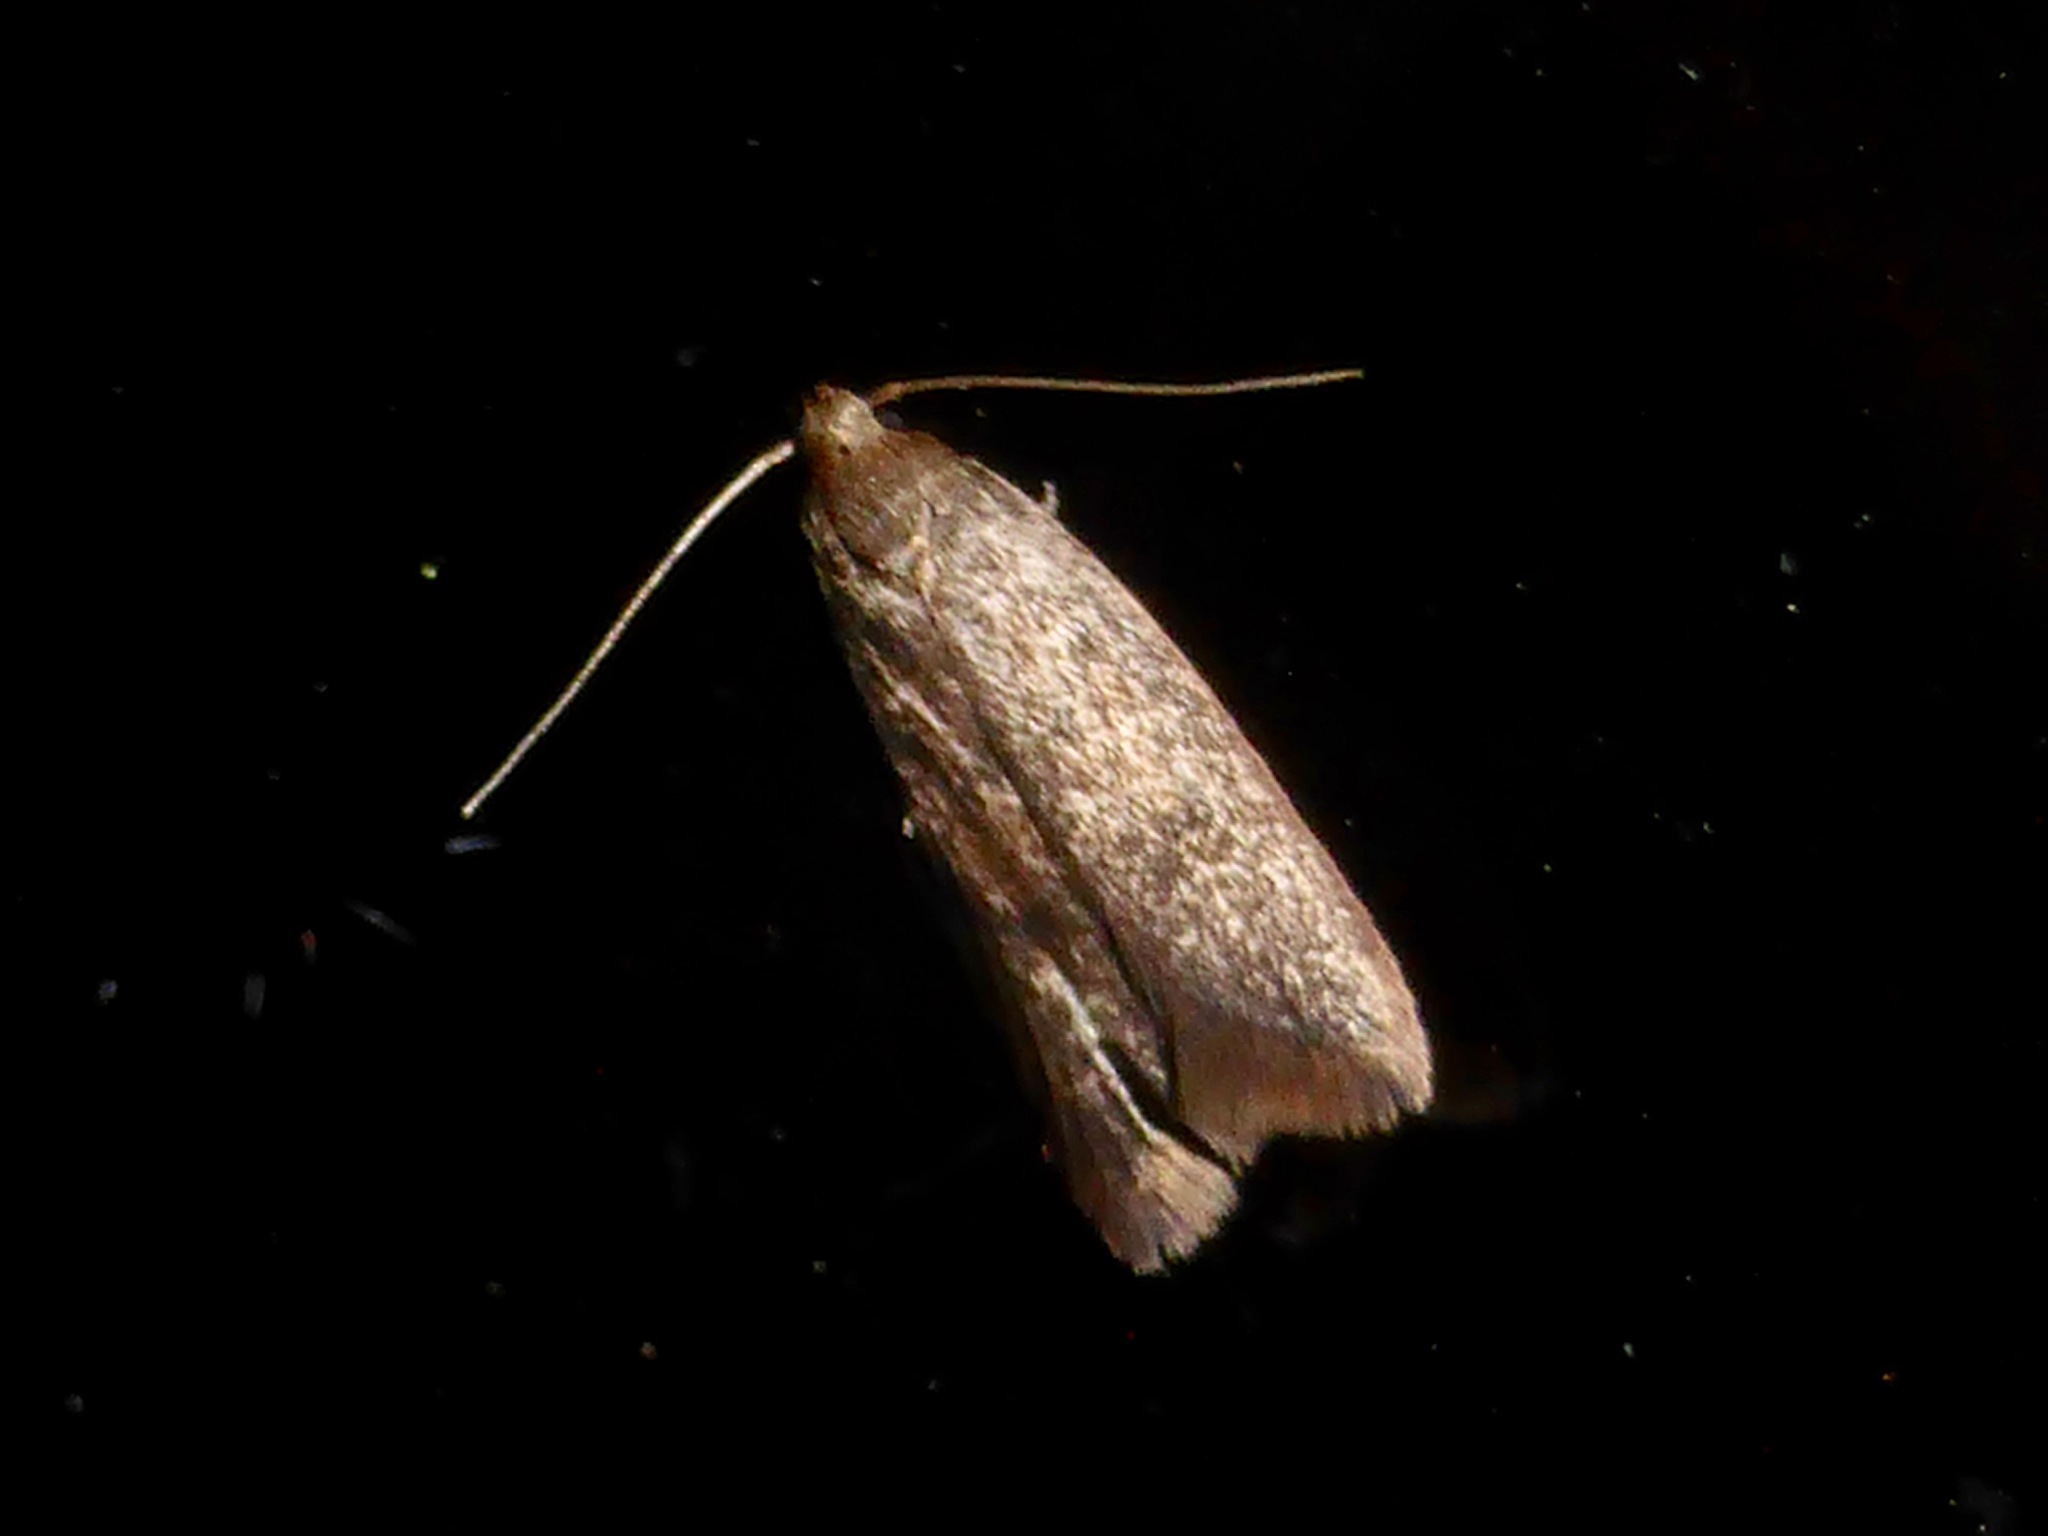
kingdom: Animalia
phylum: Arthropoda
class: Insecta
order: Lepidoptera
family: Oecophoridae
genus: Tachystola
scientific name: Tachystola acroxantha
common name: Ruddy streak
